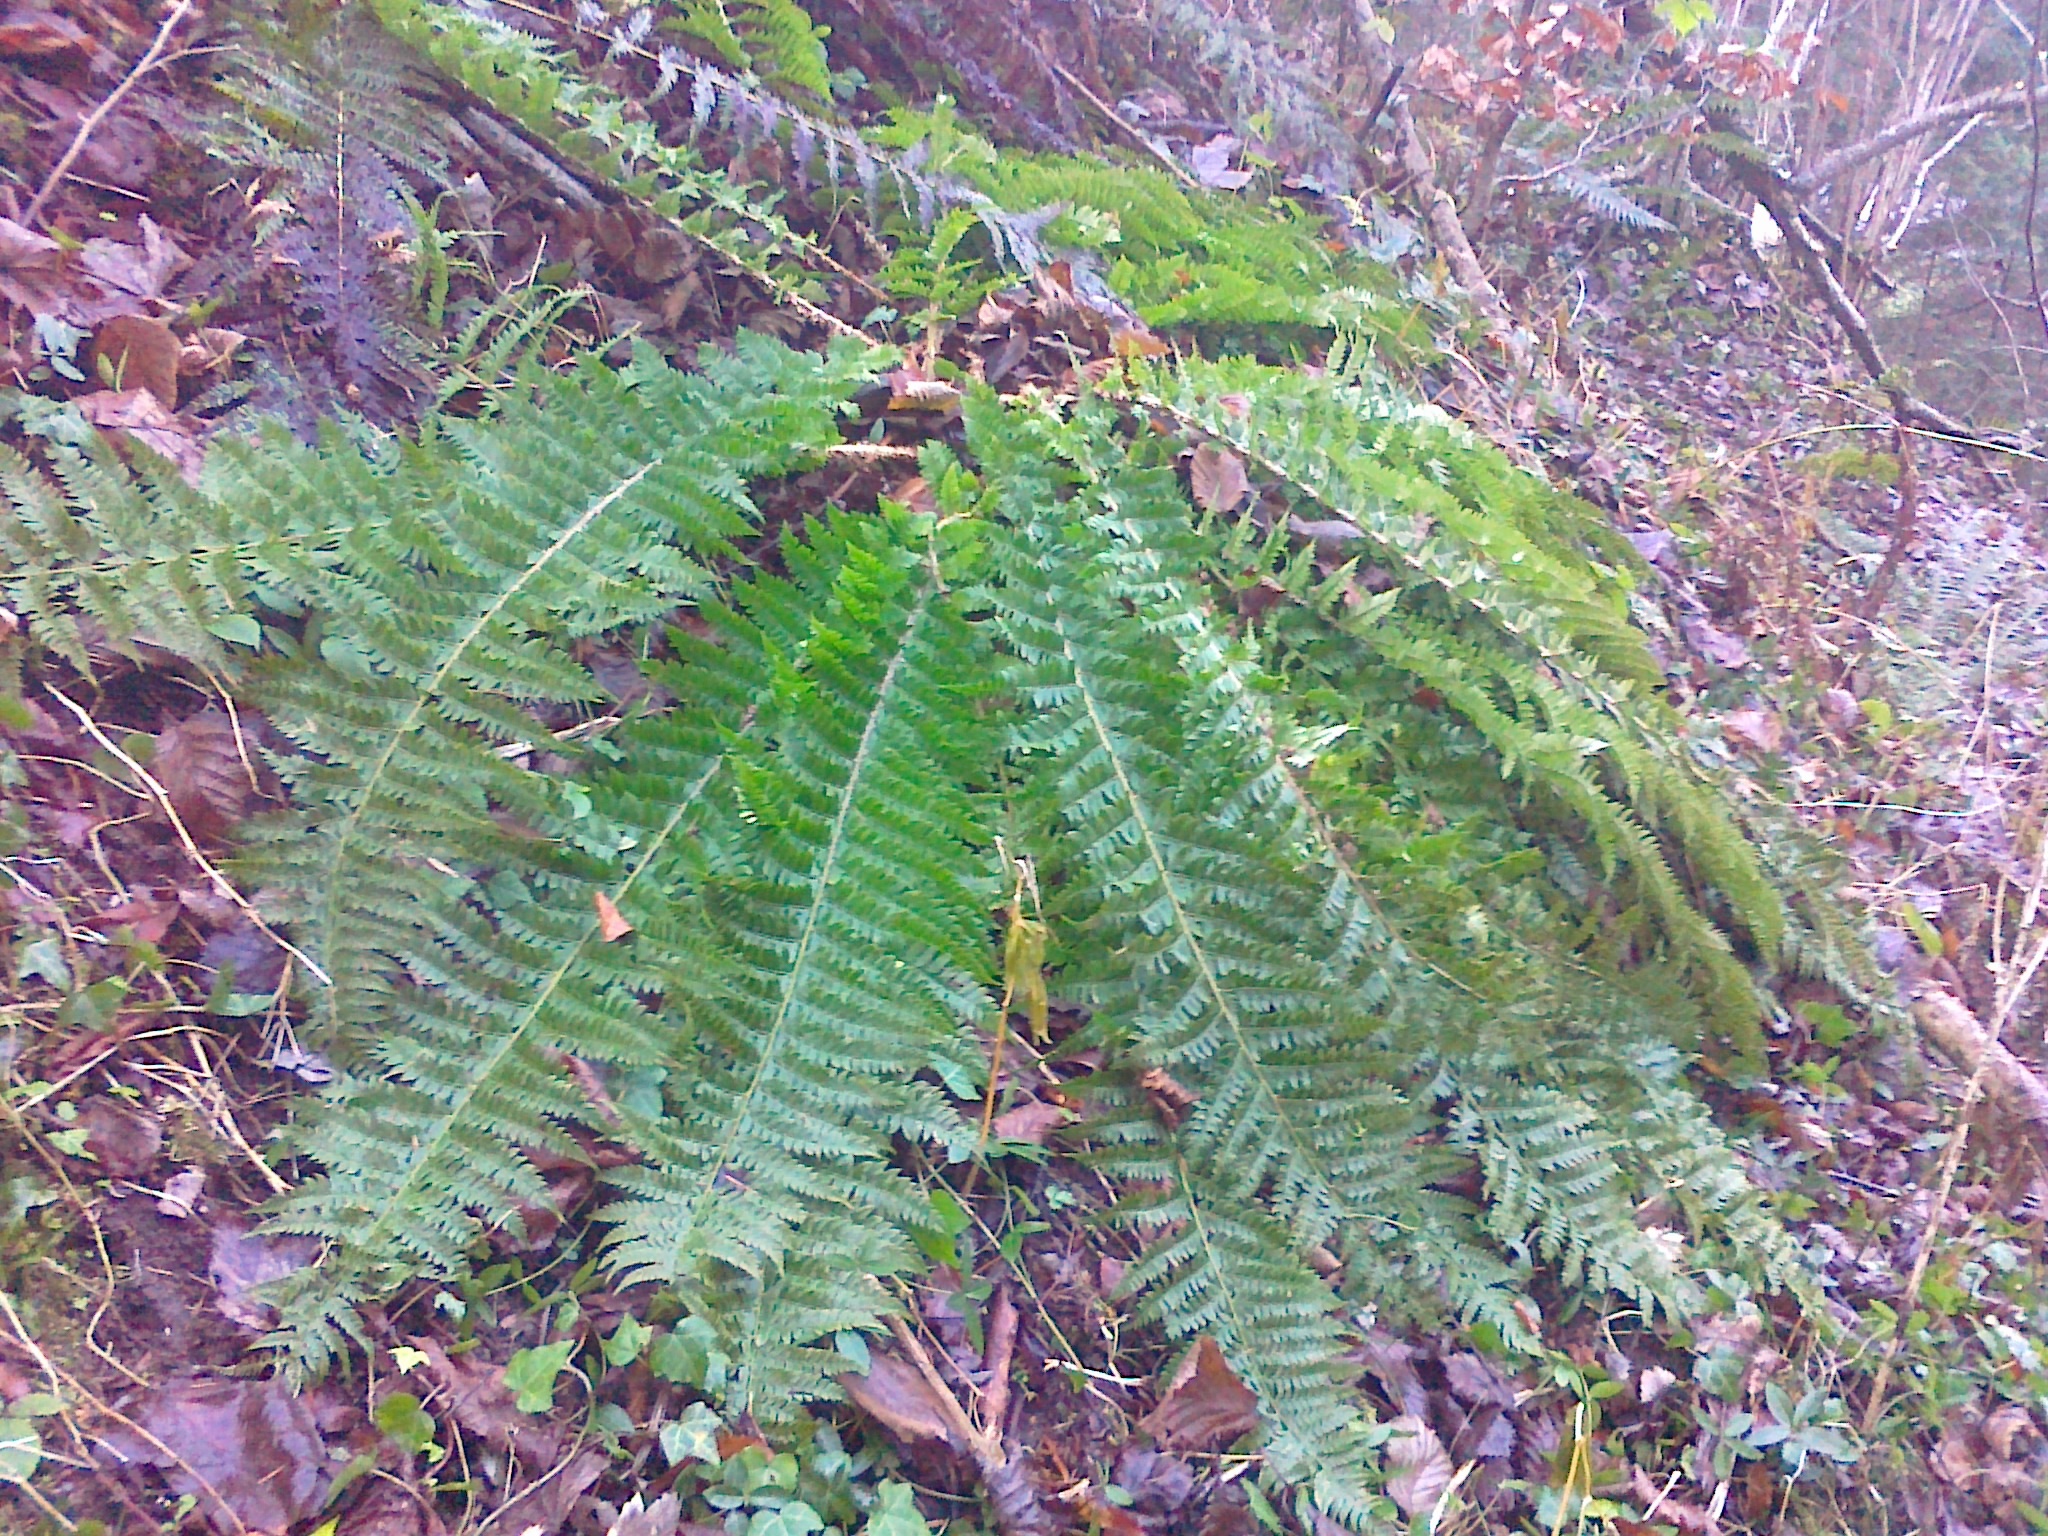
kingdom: Plantae
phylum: Tracheophyta
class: Polypodiopsida
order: Polypodiales
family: Dryopteridaceae
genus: Polystichum
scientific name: Polystichum luerssenii
